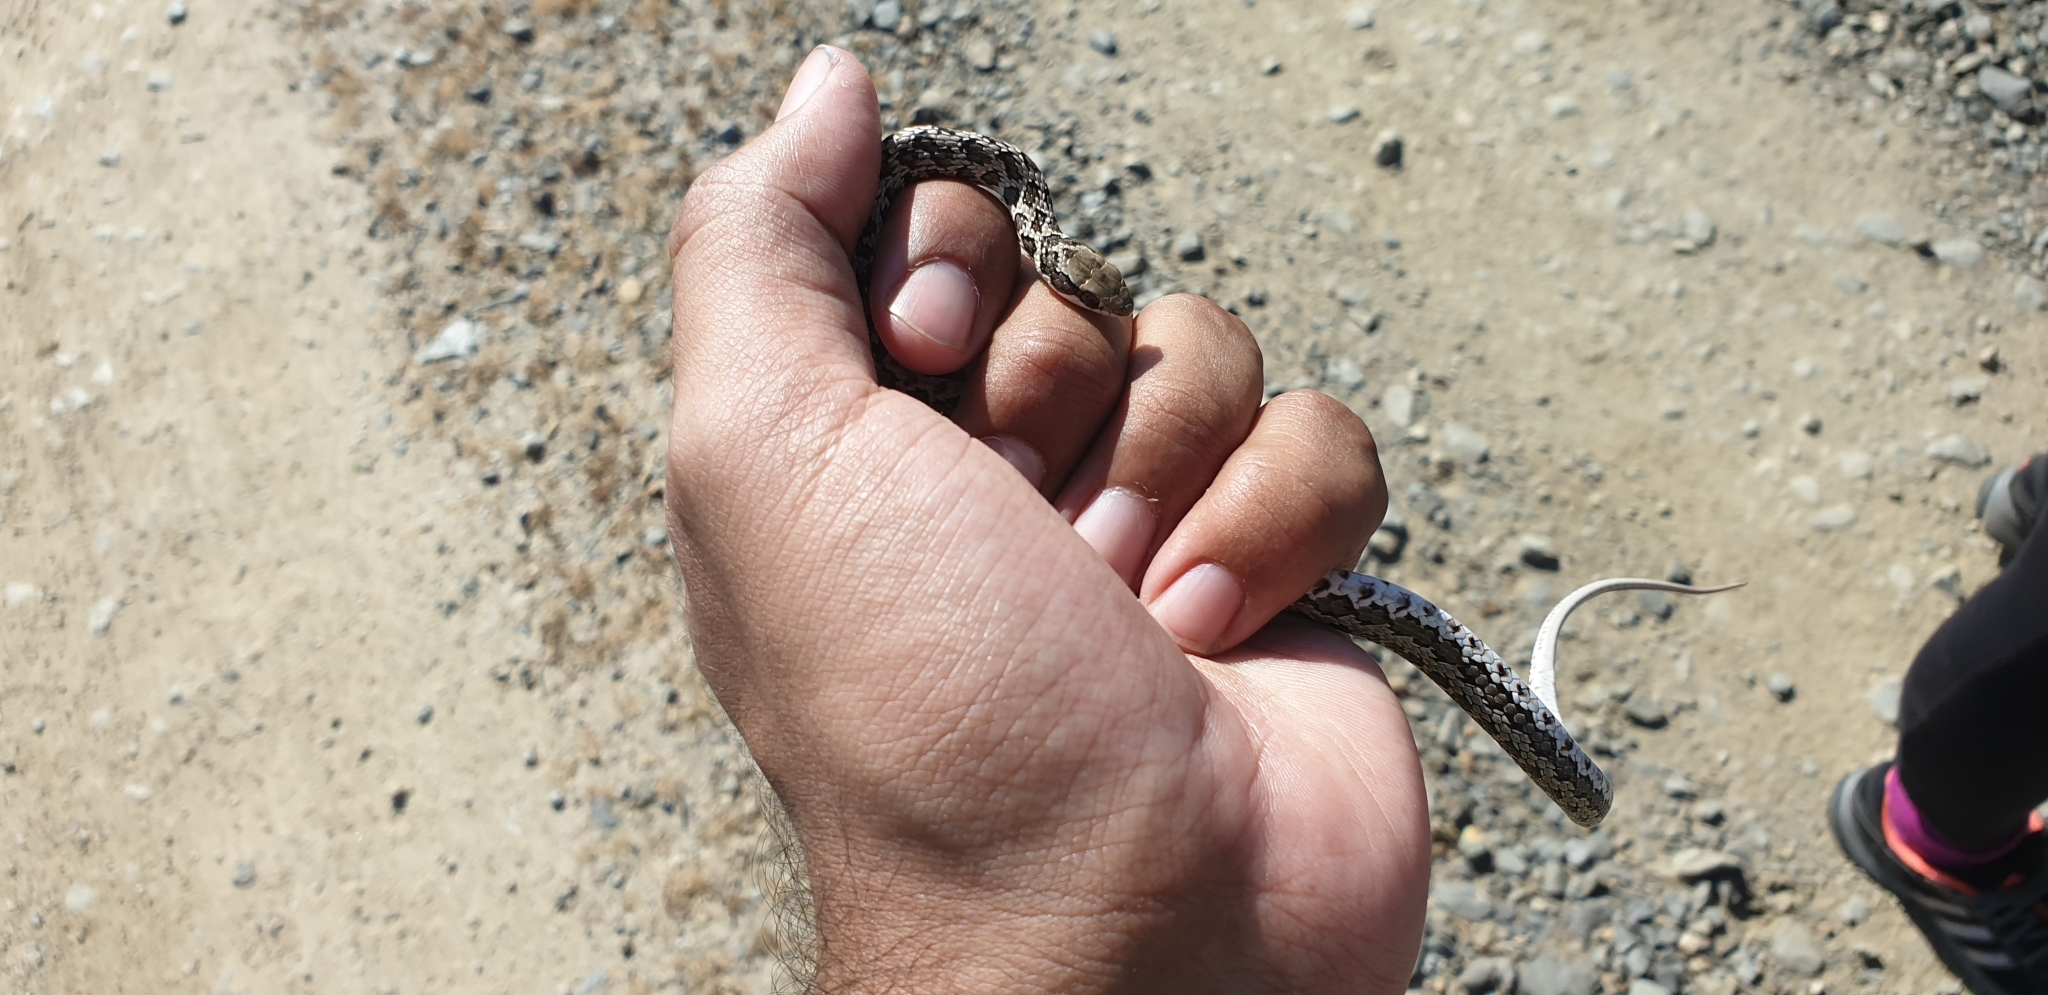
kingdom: Animalia
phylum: Chordata
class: Squamata
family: Psammophiidae
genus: Psammophylax
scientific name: Psammophylax rhombeatus
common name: Rhombic skaapsteker
